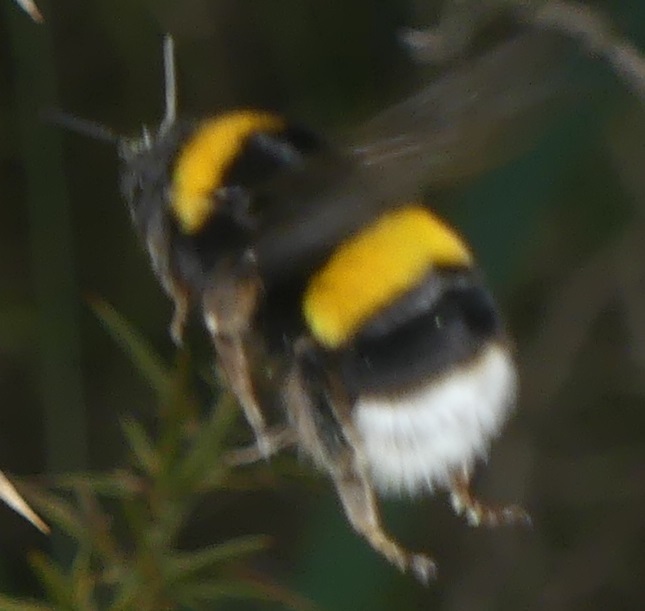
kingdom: Animalia
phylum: Arthropoda
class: Insecta
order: Hymenoptera
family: Apidae
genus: Bombus
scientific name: Bombus terrestris
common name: Buff-tailed bumblebee
